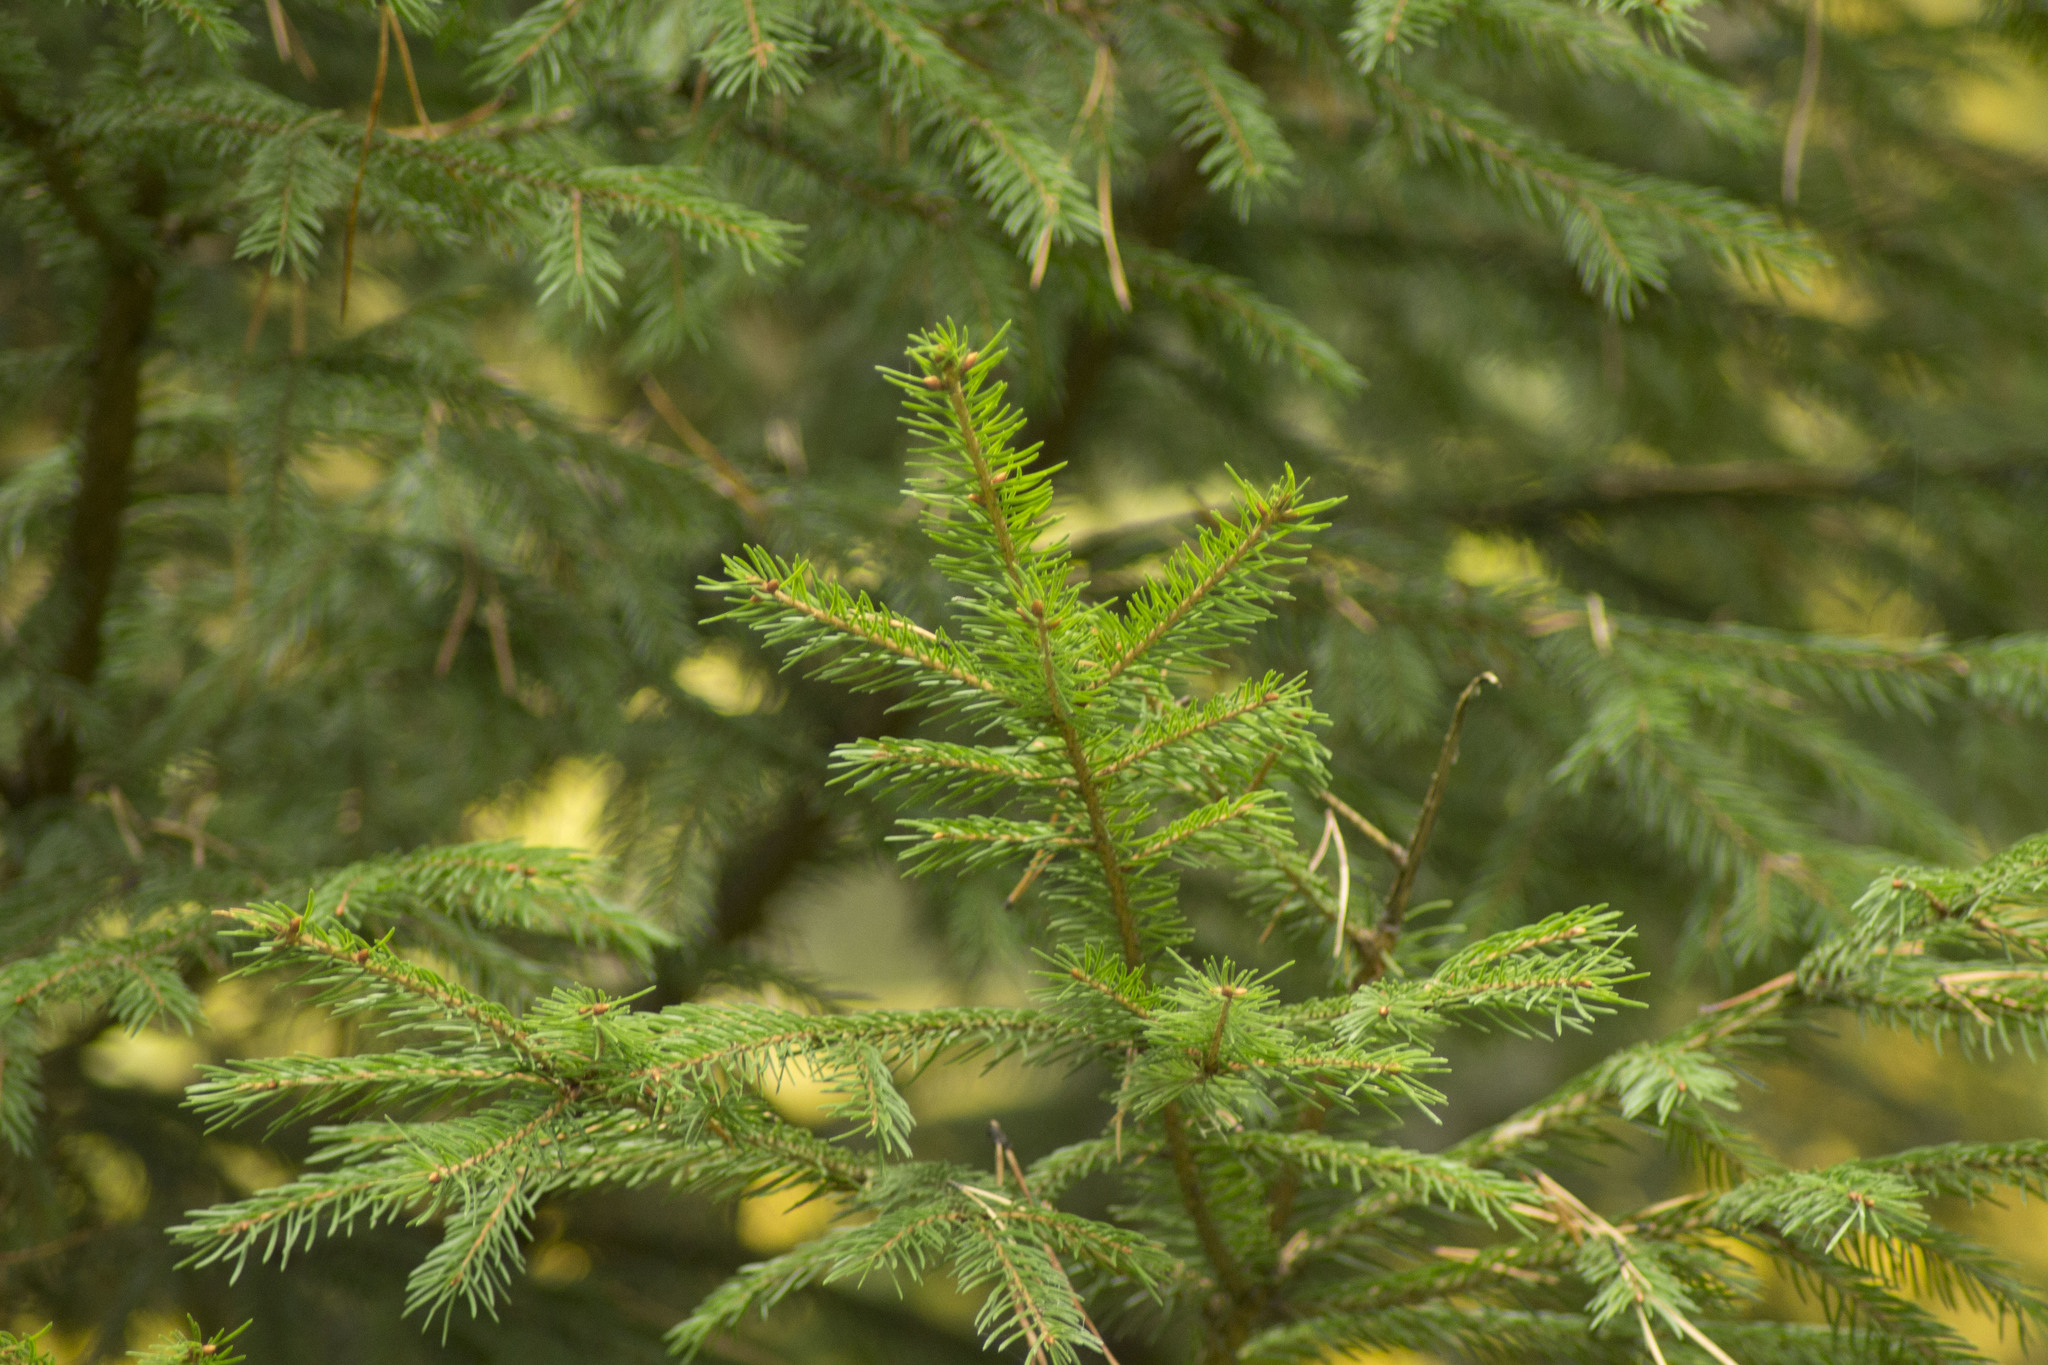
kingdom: Plantae
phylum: Tracheophyta
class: Pinopsida
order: Pinales
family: Pinaceae
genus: Picea
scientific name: Picea obovata
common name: Siberian spruce
